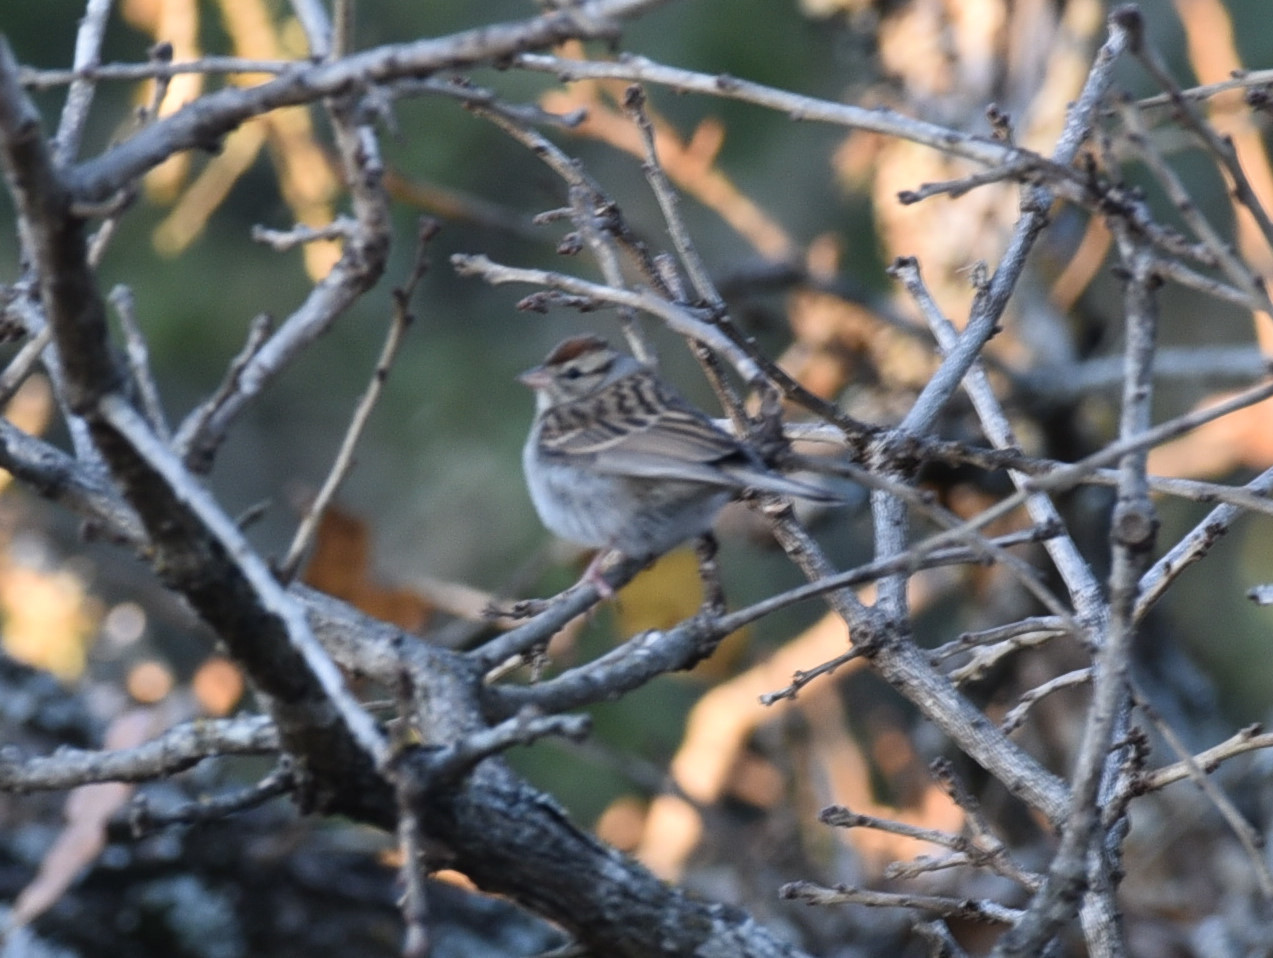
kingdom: Animalia
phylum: Chordata
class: Aves
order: Passeriformes
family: Passerellidae
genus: Spizella
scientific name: Spizella passerina
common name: Chipping sparrow
